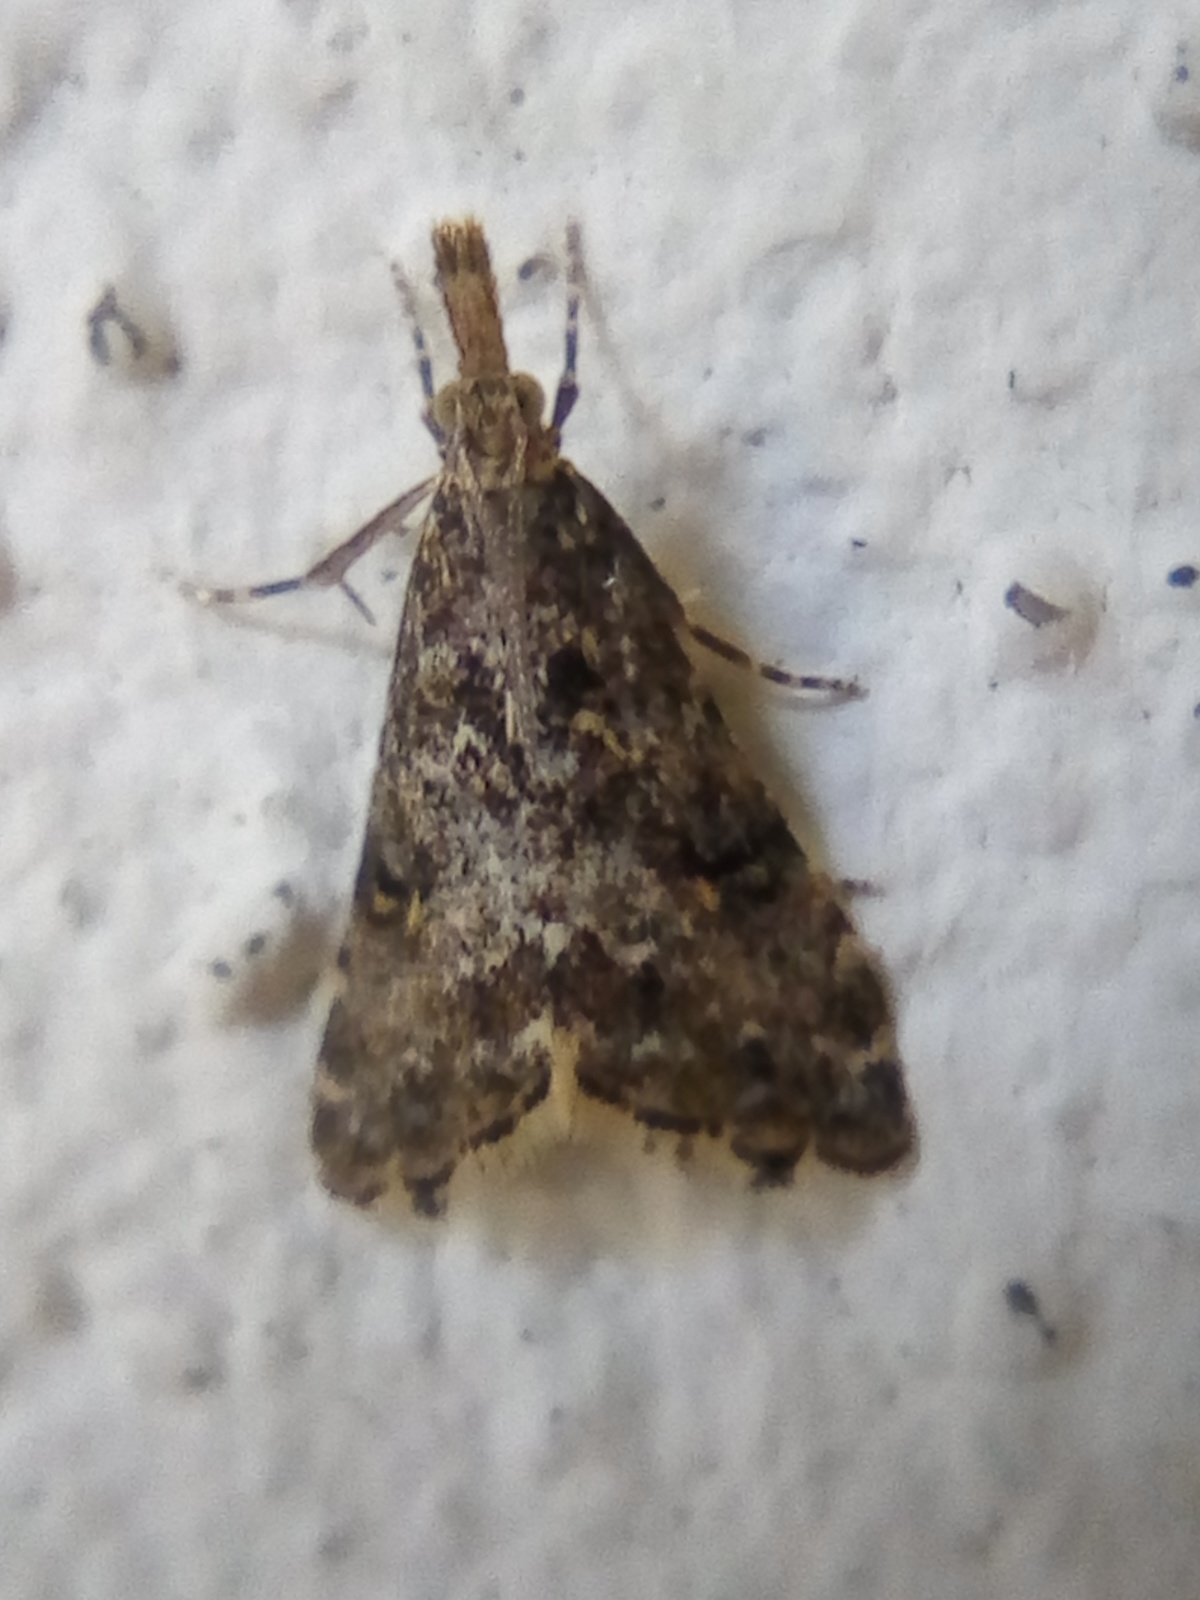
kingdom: Animalia
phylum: Arthropoda
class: Insecta
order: Lepidoptera
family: Crambidae
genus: Glaucocharis
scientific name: Glaucocharis elaina
